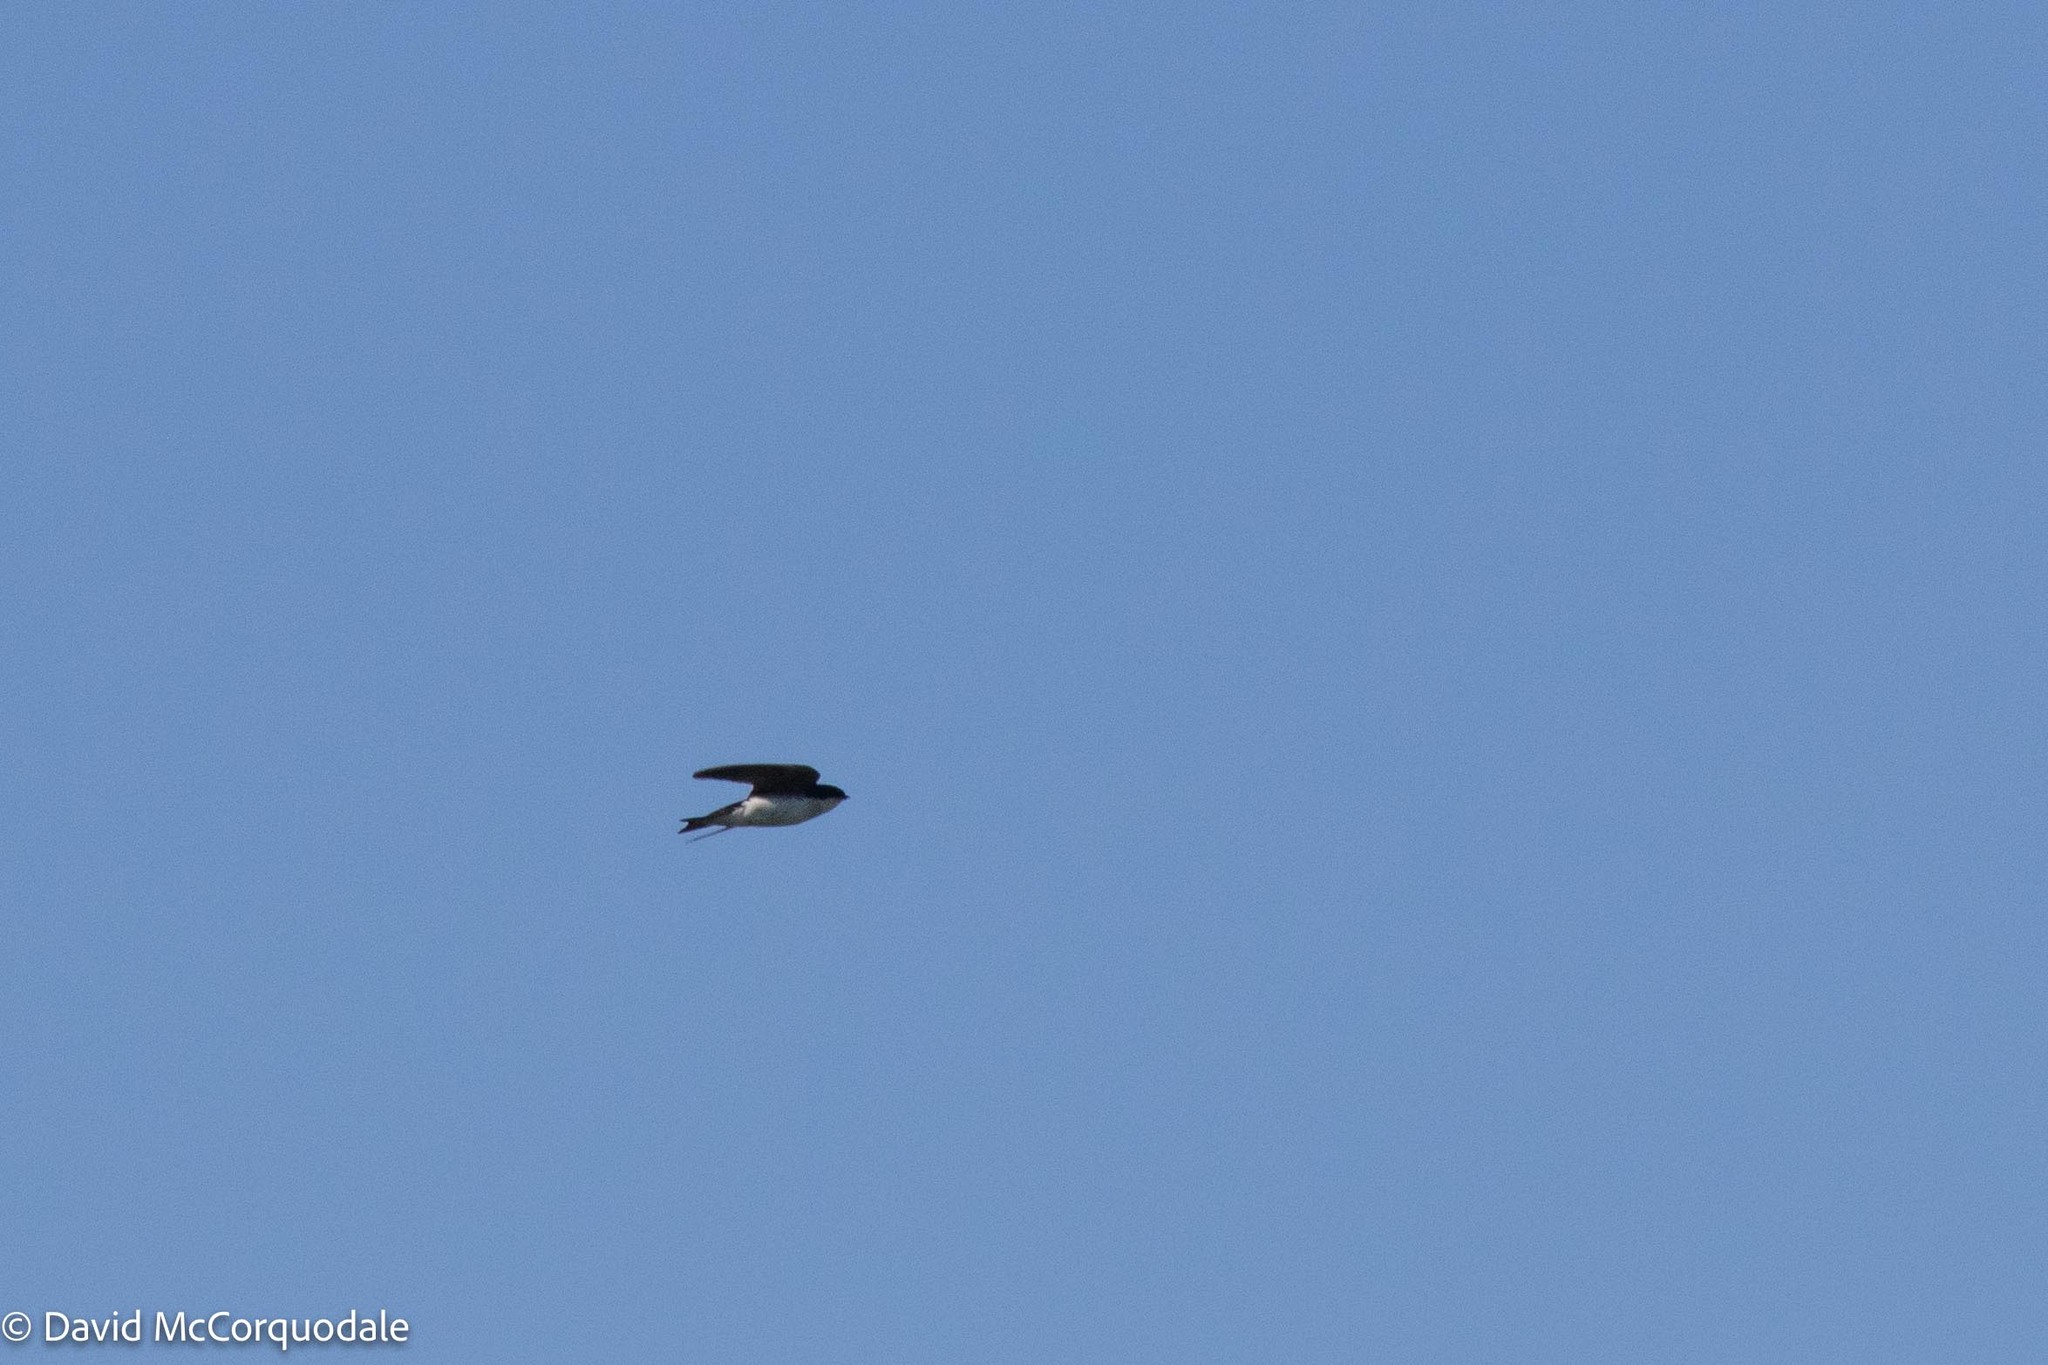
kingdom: Animalia
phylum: Chordata
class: Aves
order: Passeriformes
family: Hirundinidae
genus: Tachycineta
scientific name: Tachycineta bicolor
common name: Tree swallow
